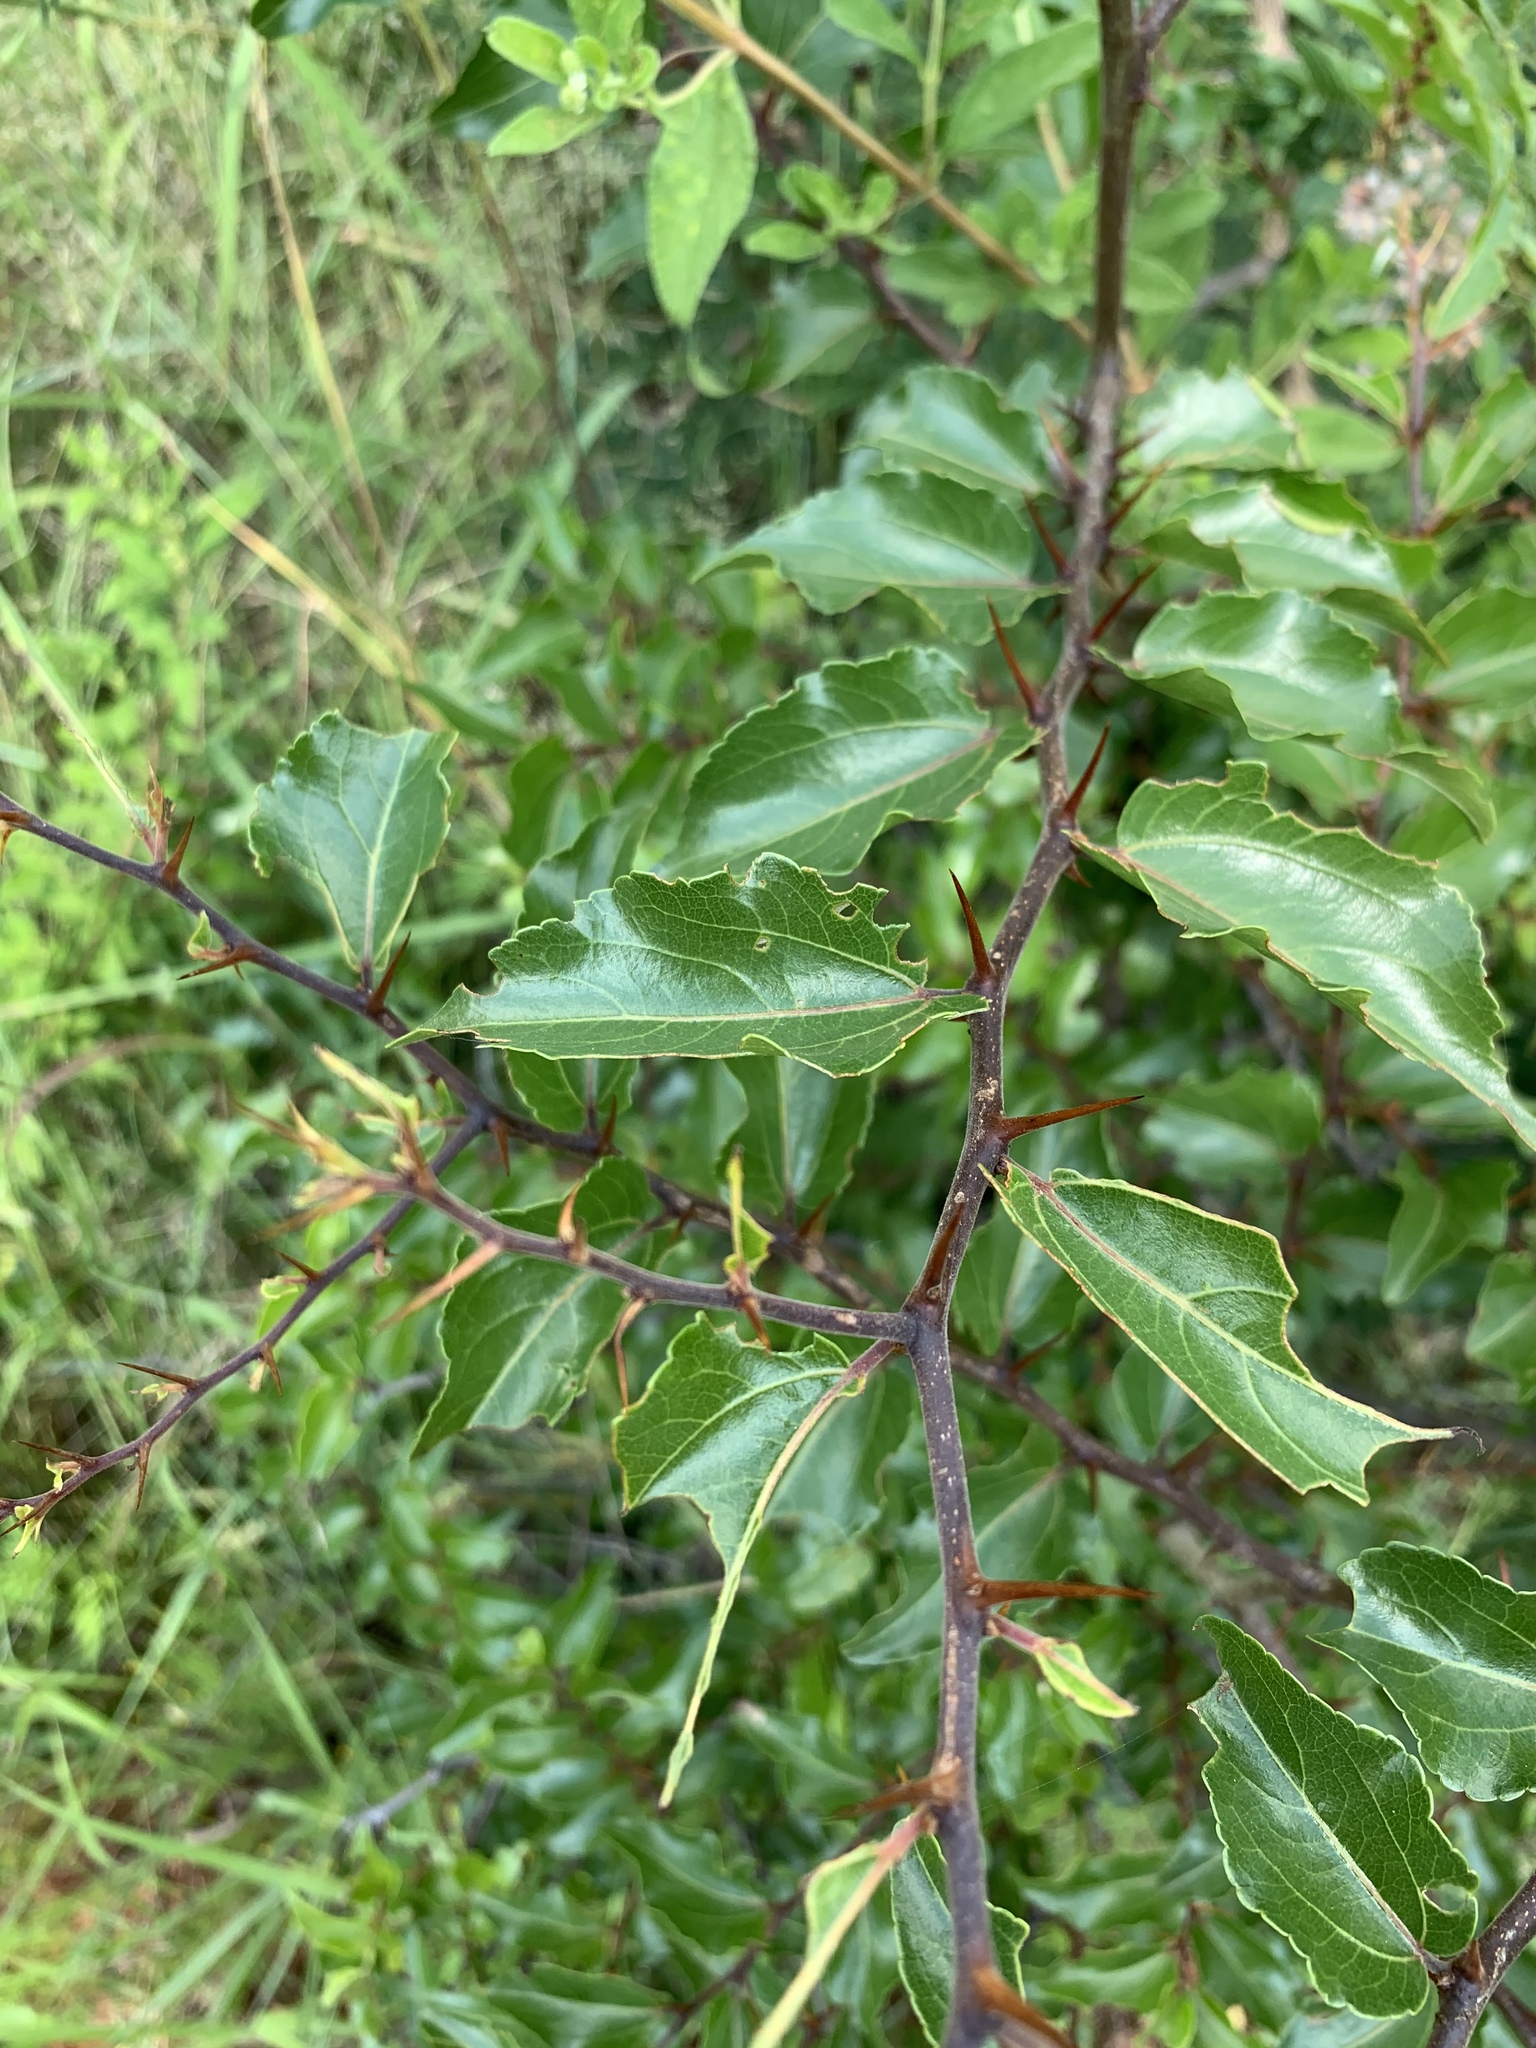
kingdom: Plantae
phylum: Tracheophyta
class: Magnoliopsida
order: Rosales
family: Rhamnaceae
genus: Ziziphus
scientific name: Ziziphus mucronata
